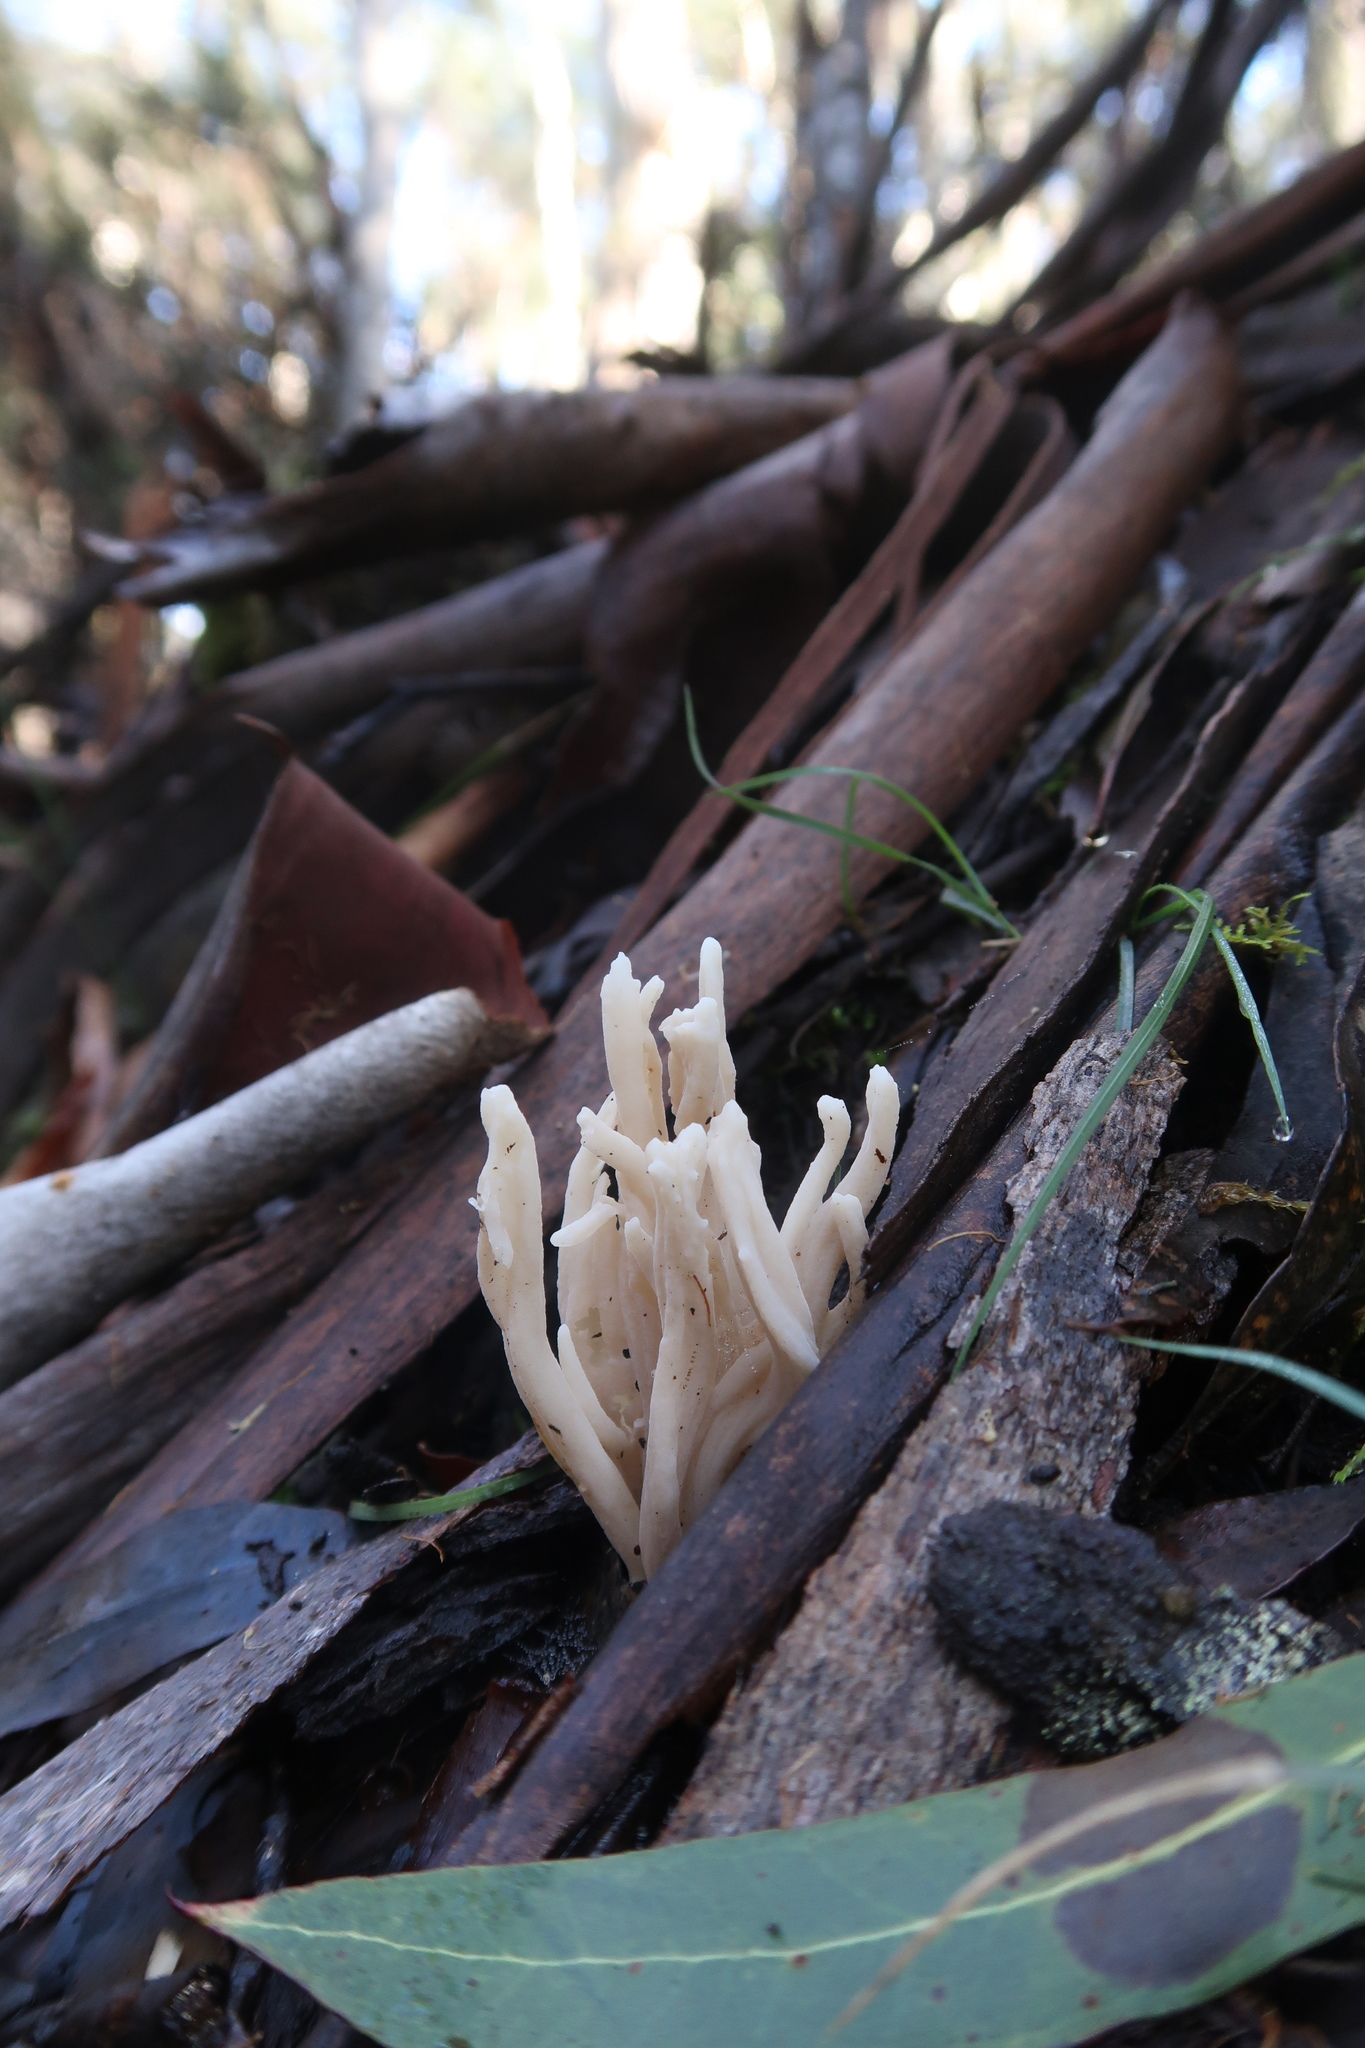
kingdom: Fungi
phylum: Basidiomycota
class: Agaricomycetes
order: Cantharellales
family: Hydnaceae
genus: Clavulina
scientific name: Clavulina subrugosa
